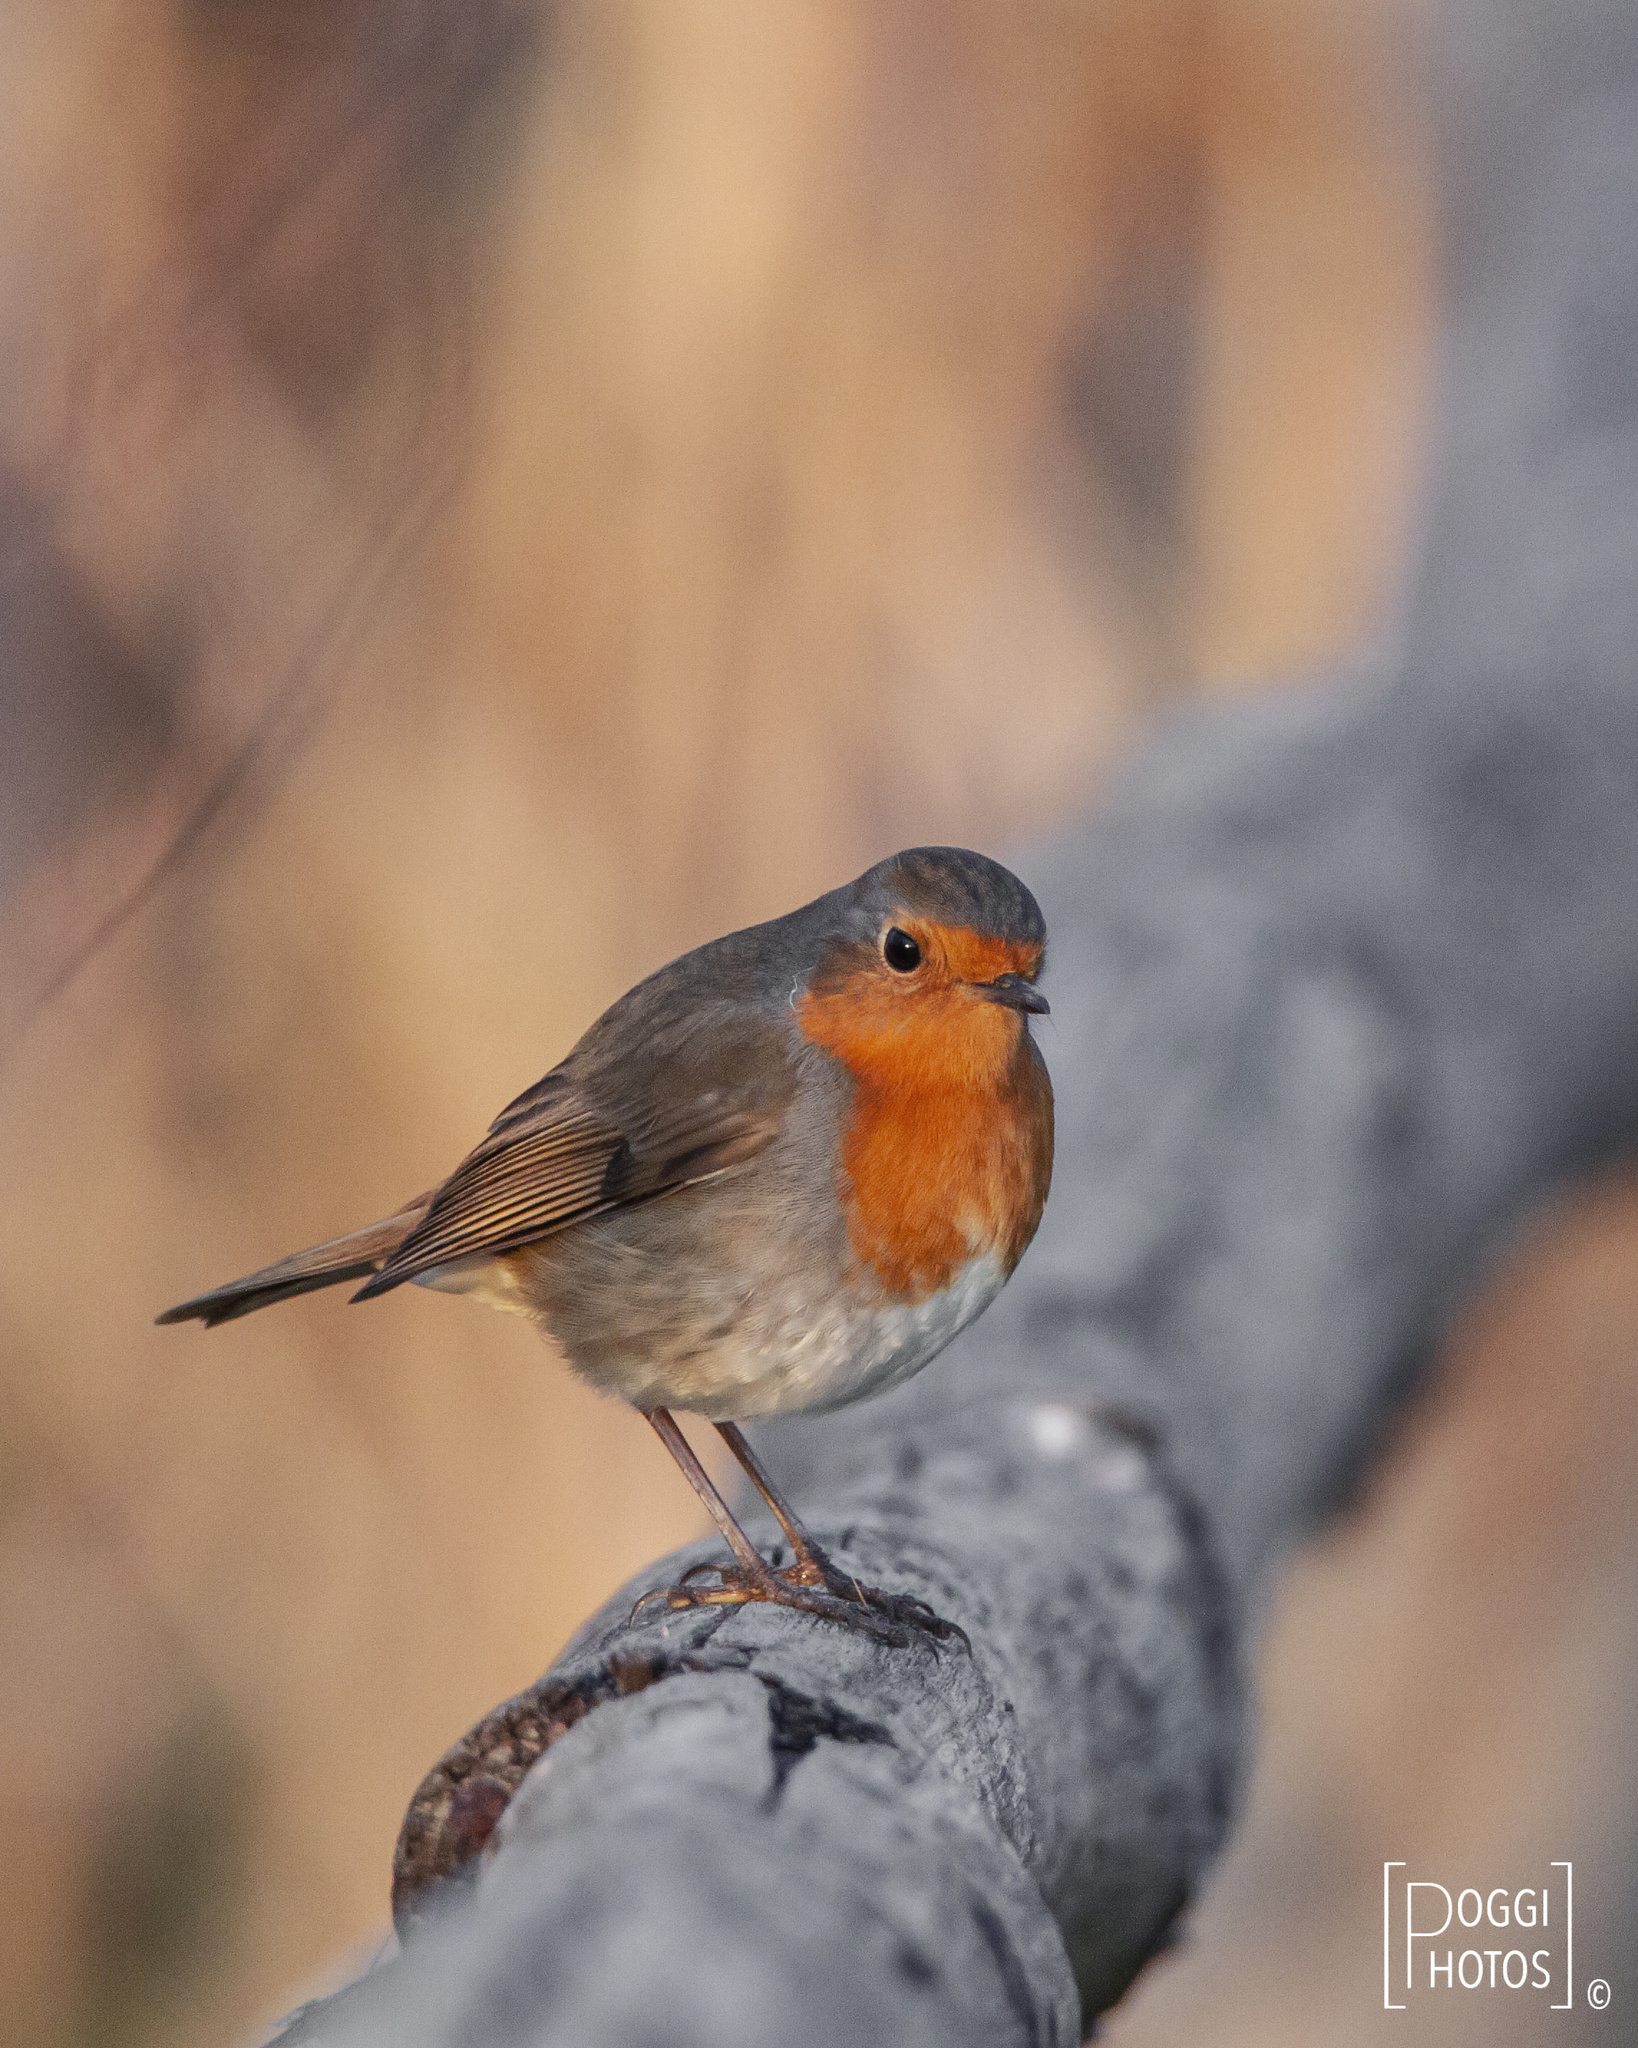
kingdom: Animalia
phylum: Chordata
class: Aves
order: Passeriformes
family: Muscicapidae
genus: Erithacus
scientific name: Erithacus rubecula
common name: European robin
